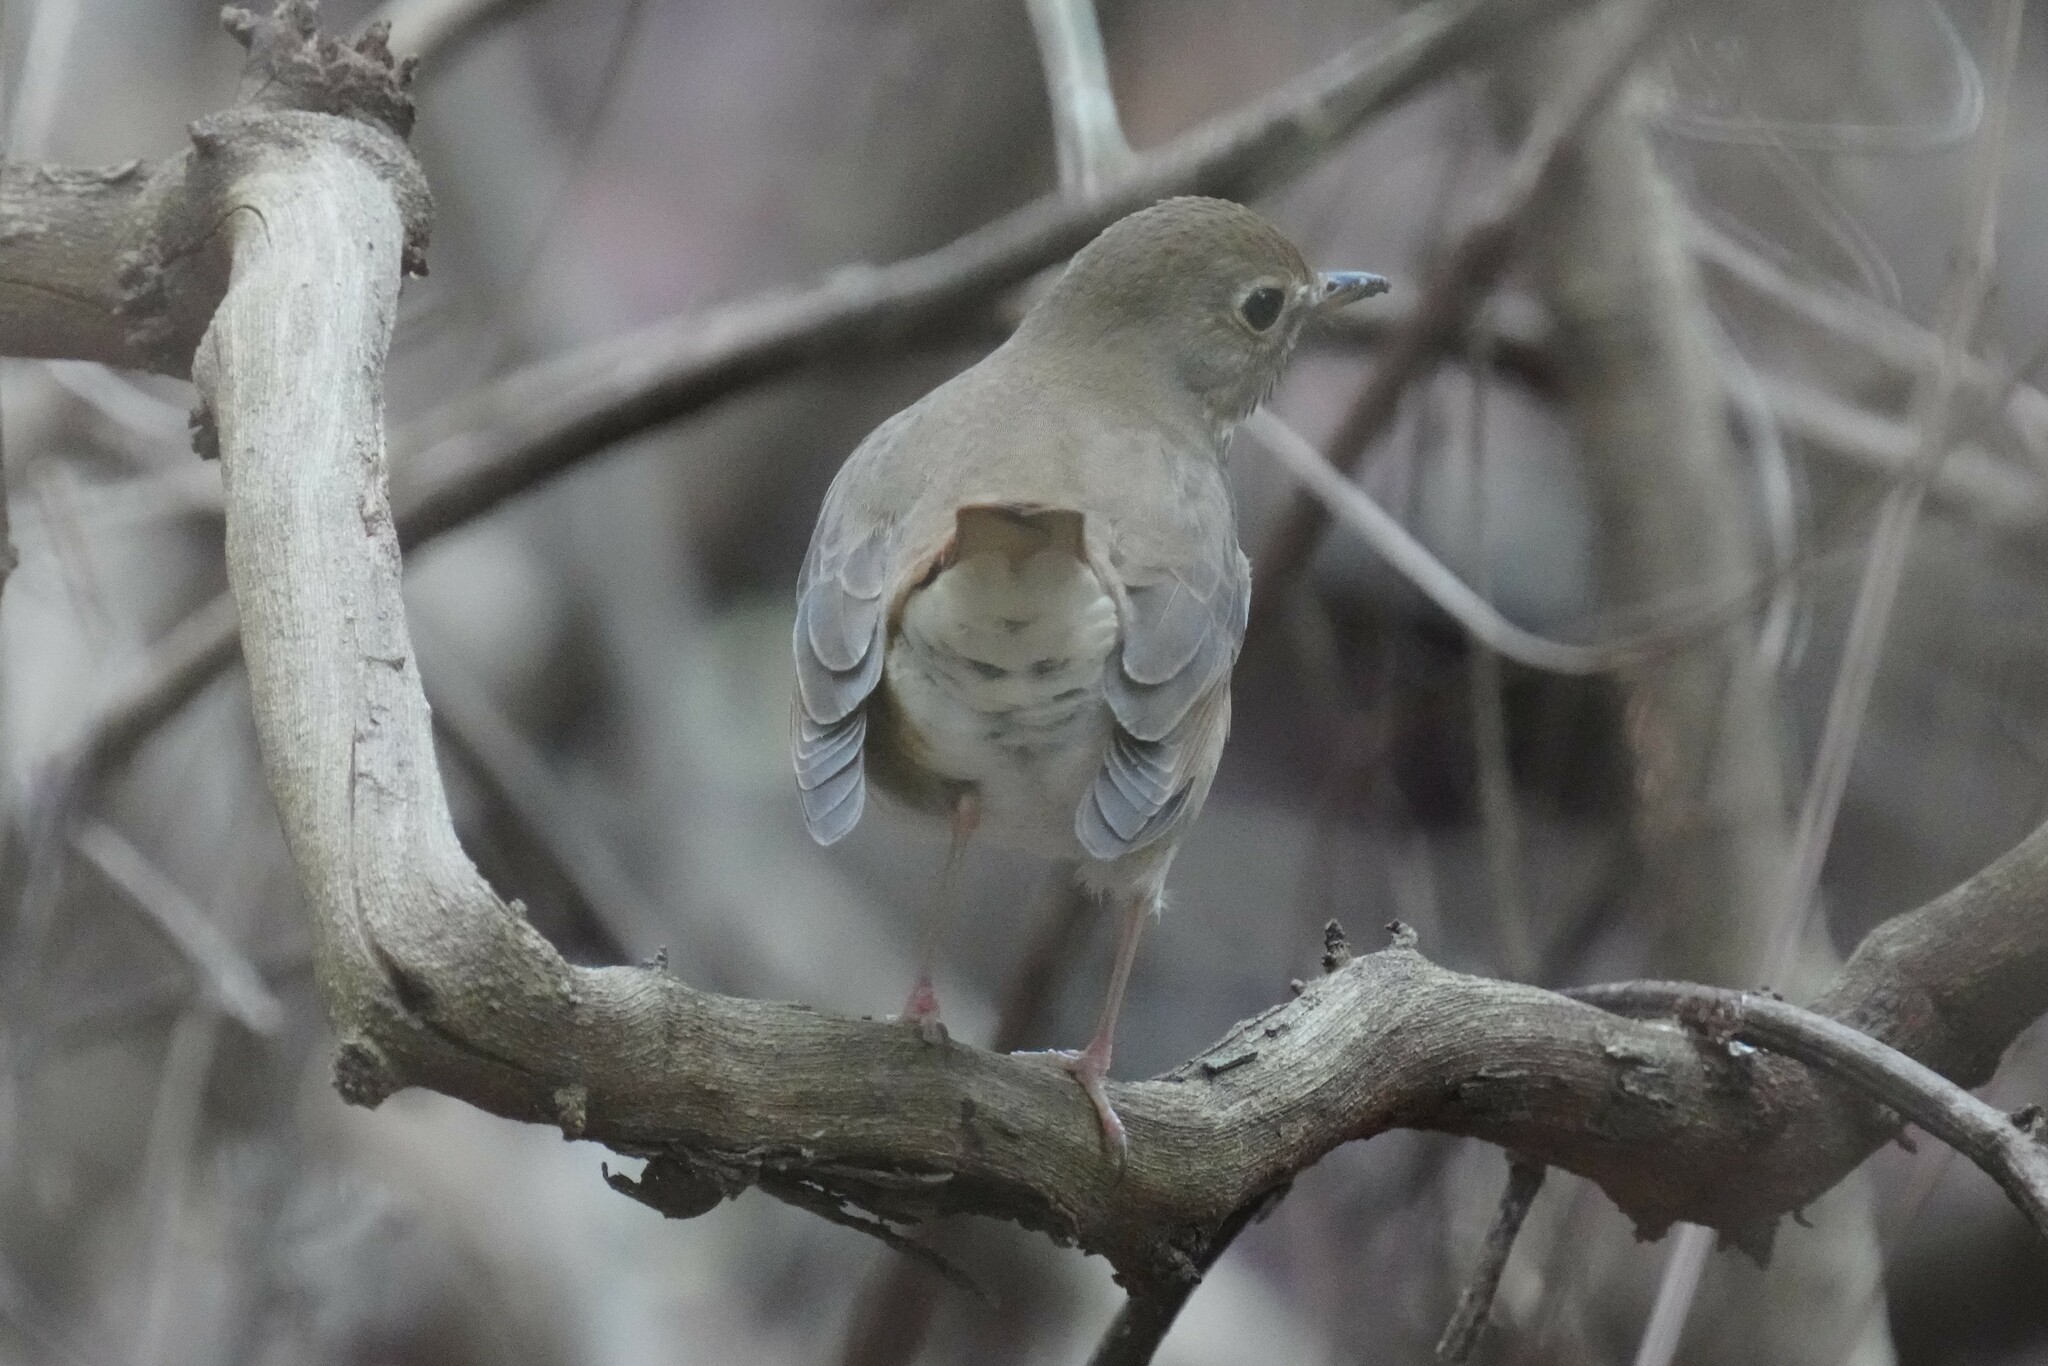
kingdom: Animalia
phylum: Chordata
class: Aves
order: Passeriformes
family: Turdidae
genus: Catharus
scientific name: Catharus guttatus
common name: Hermit thrush
